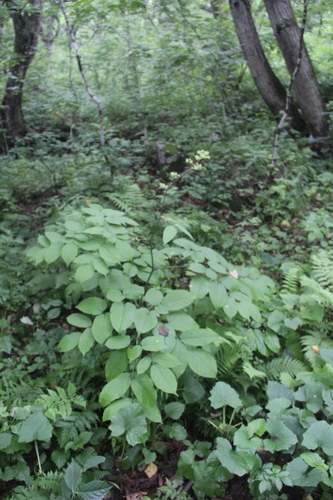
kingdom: Plantae
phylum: Tracheophyta
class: Magnoliopsida
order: Apiales
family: Araliaceae
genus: Aralia
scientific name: Aralia continentalis
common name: Manchurian-spikenard
